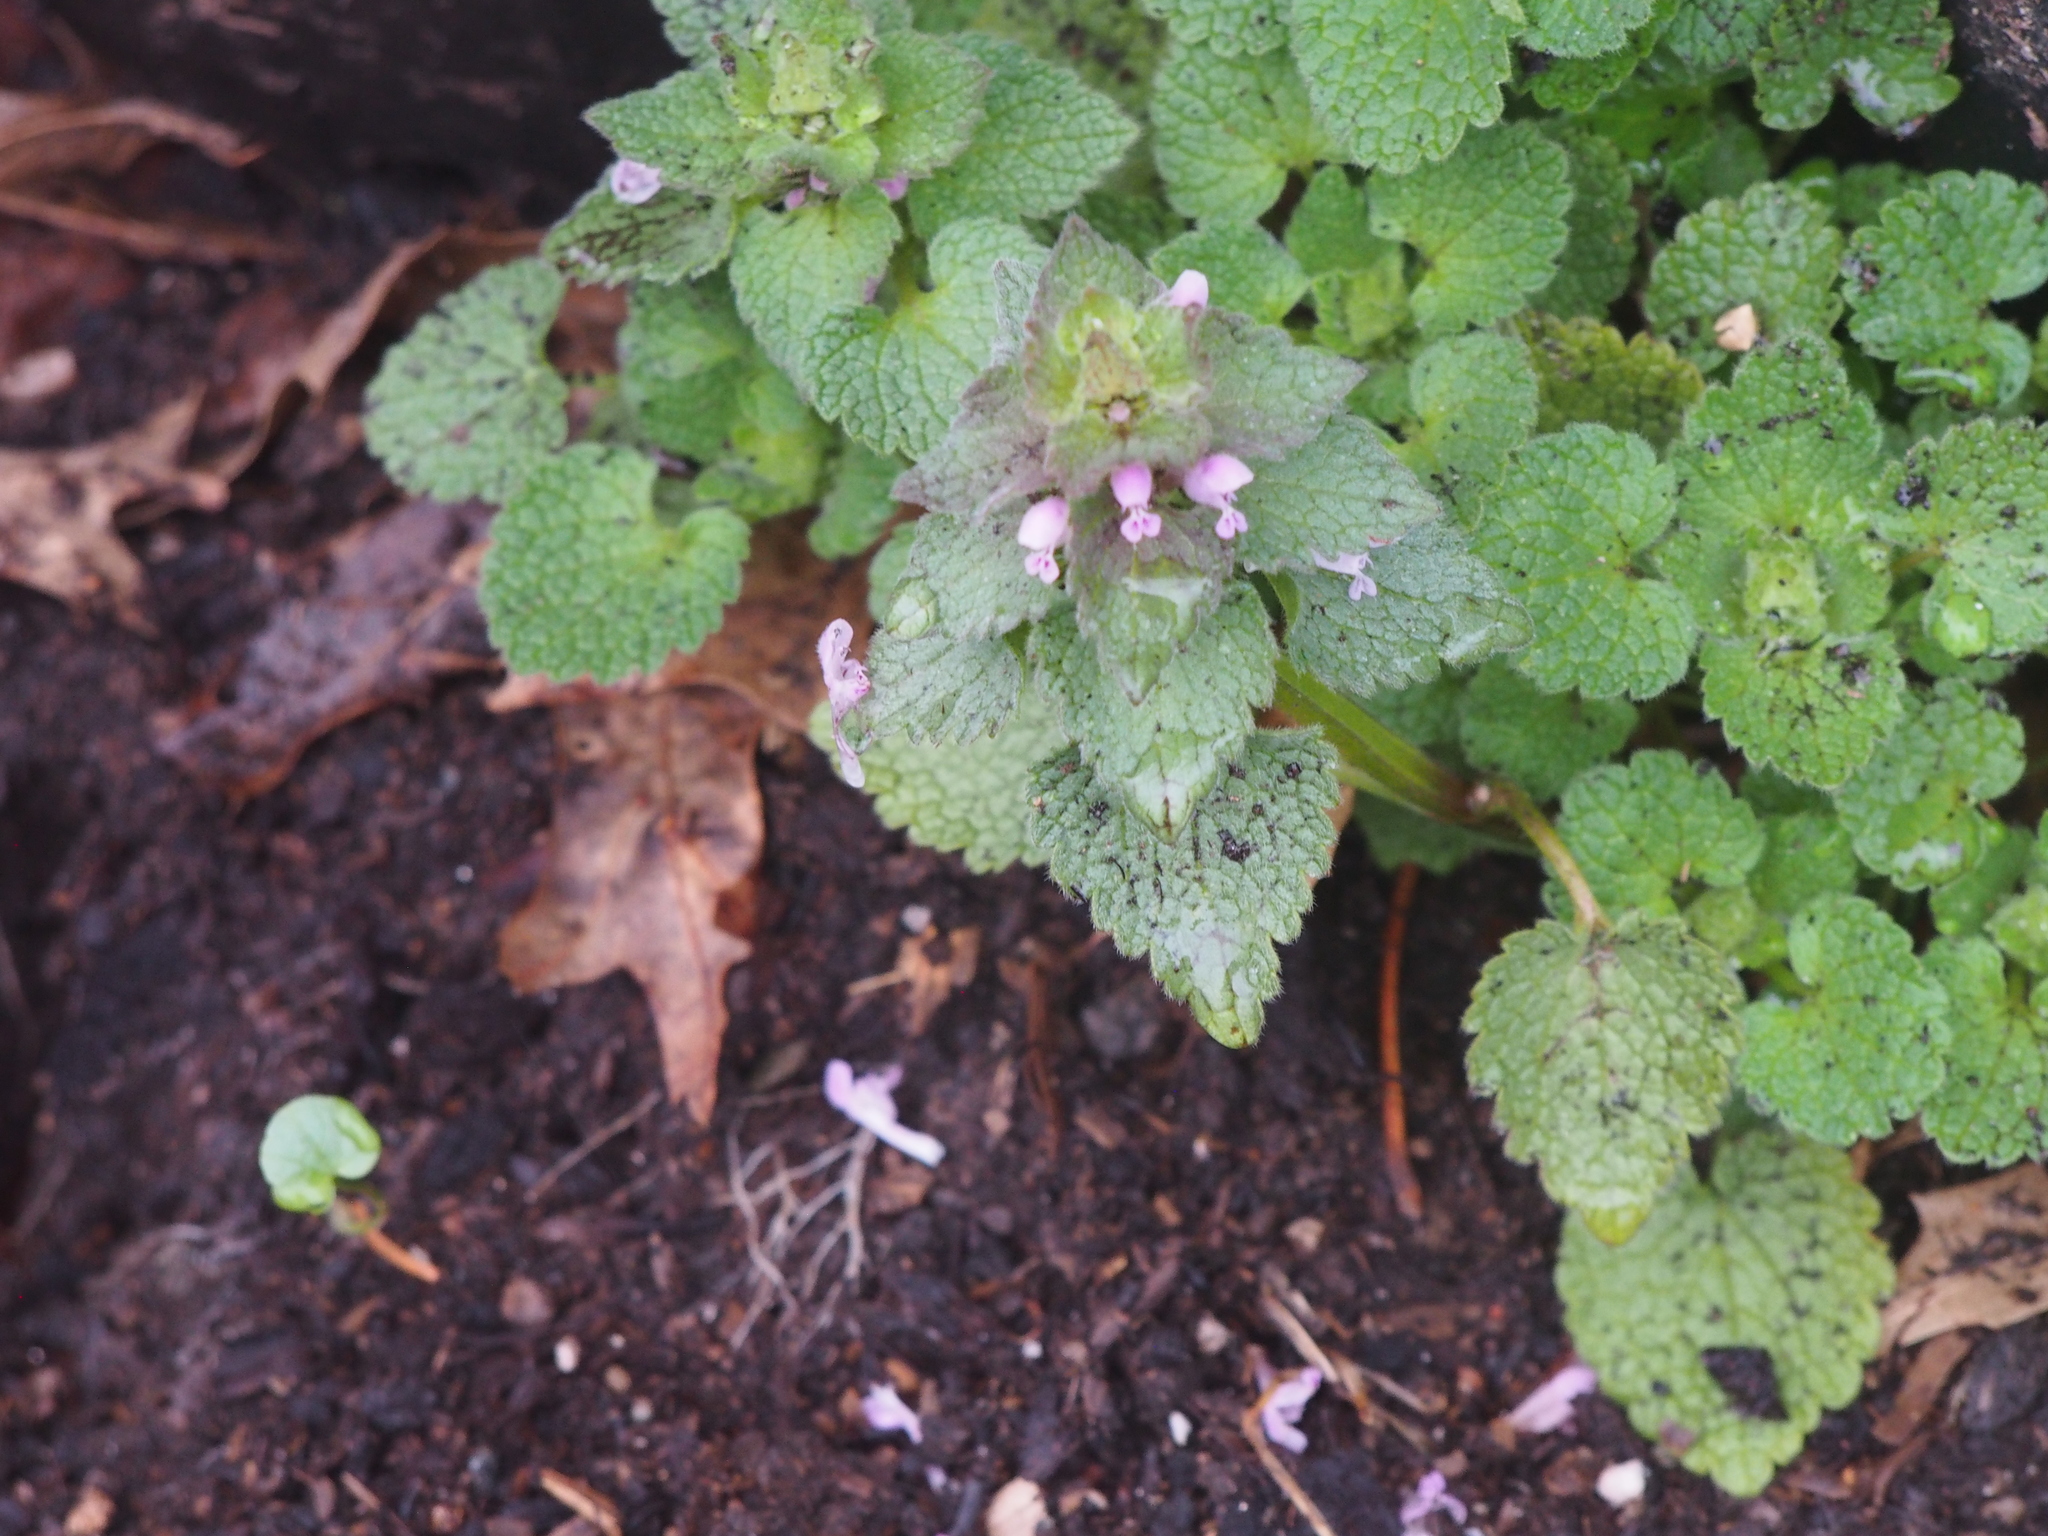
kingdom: Plantae
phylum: Tracheophyta
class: Magnoliopsida
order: Lamiales
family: Lamiaceae
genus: Lamium
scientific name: Lamium purpureum
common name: Red dead-nettle
